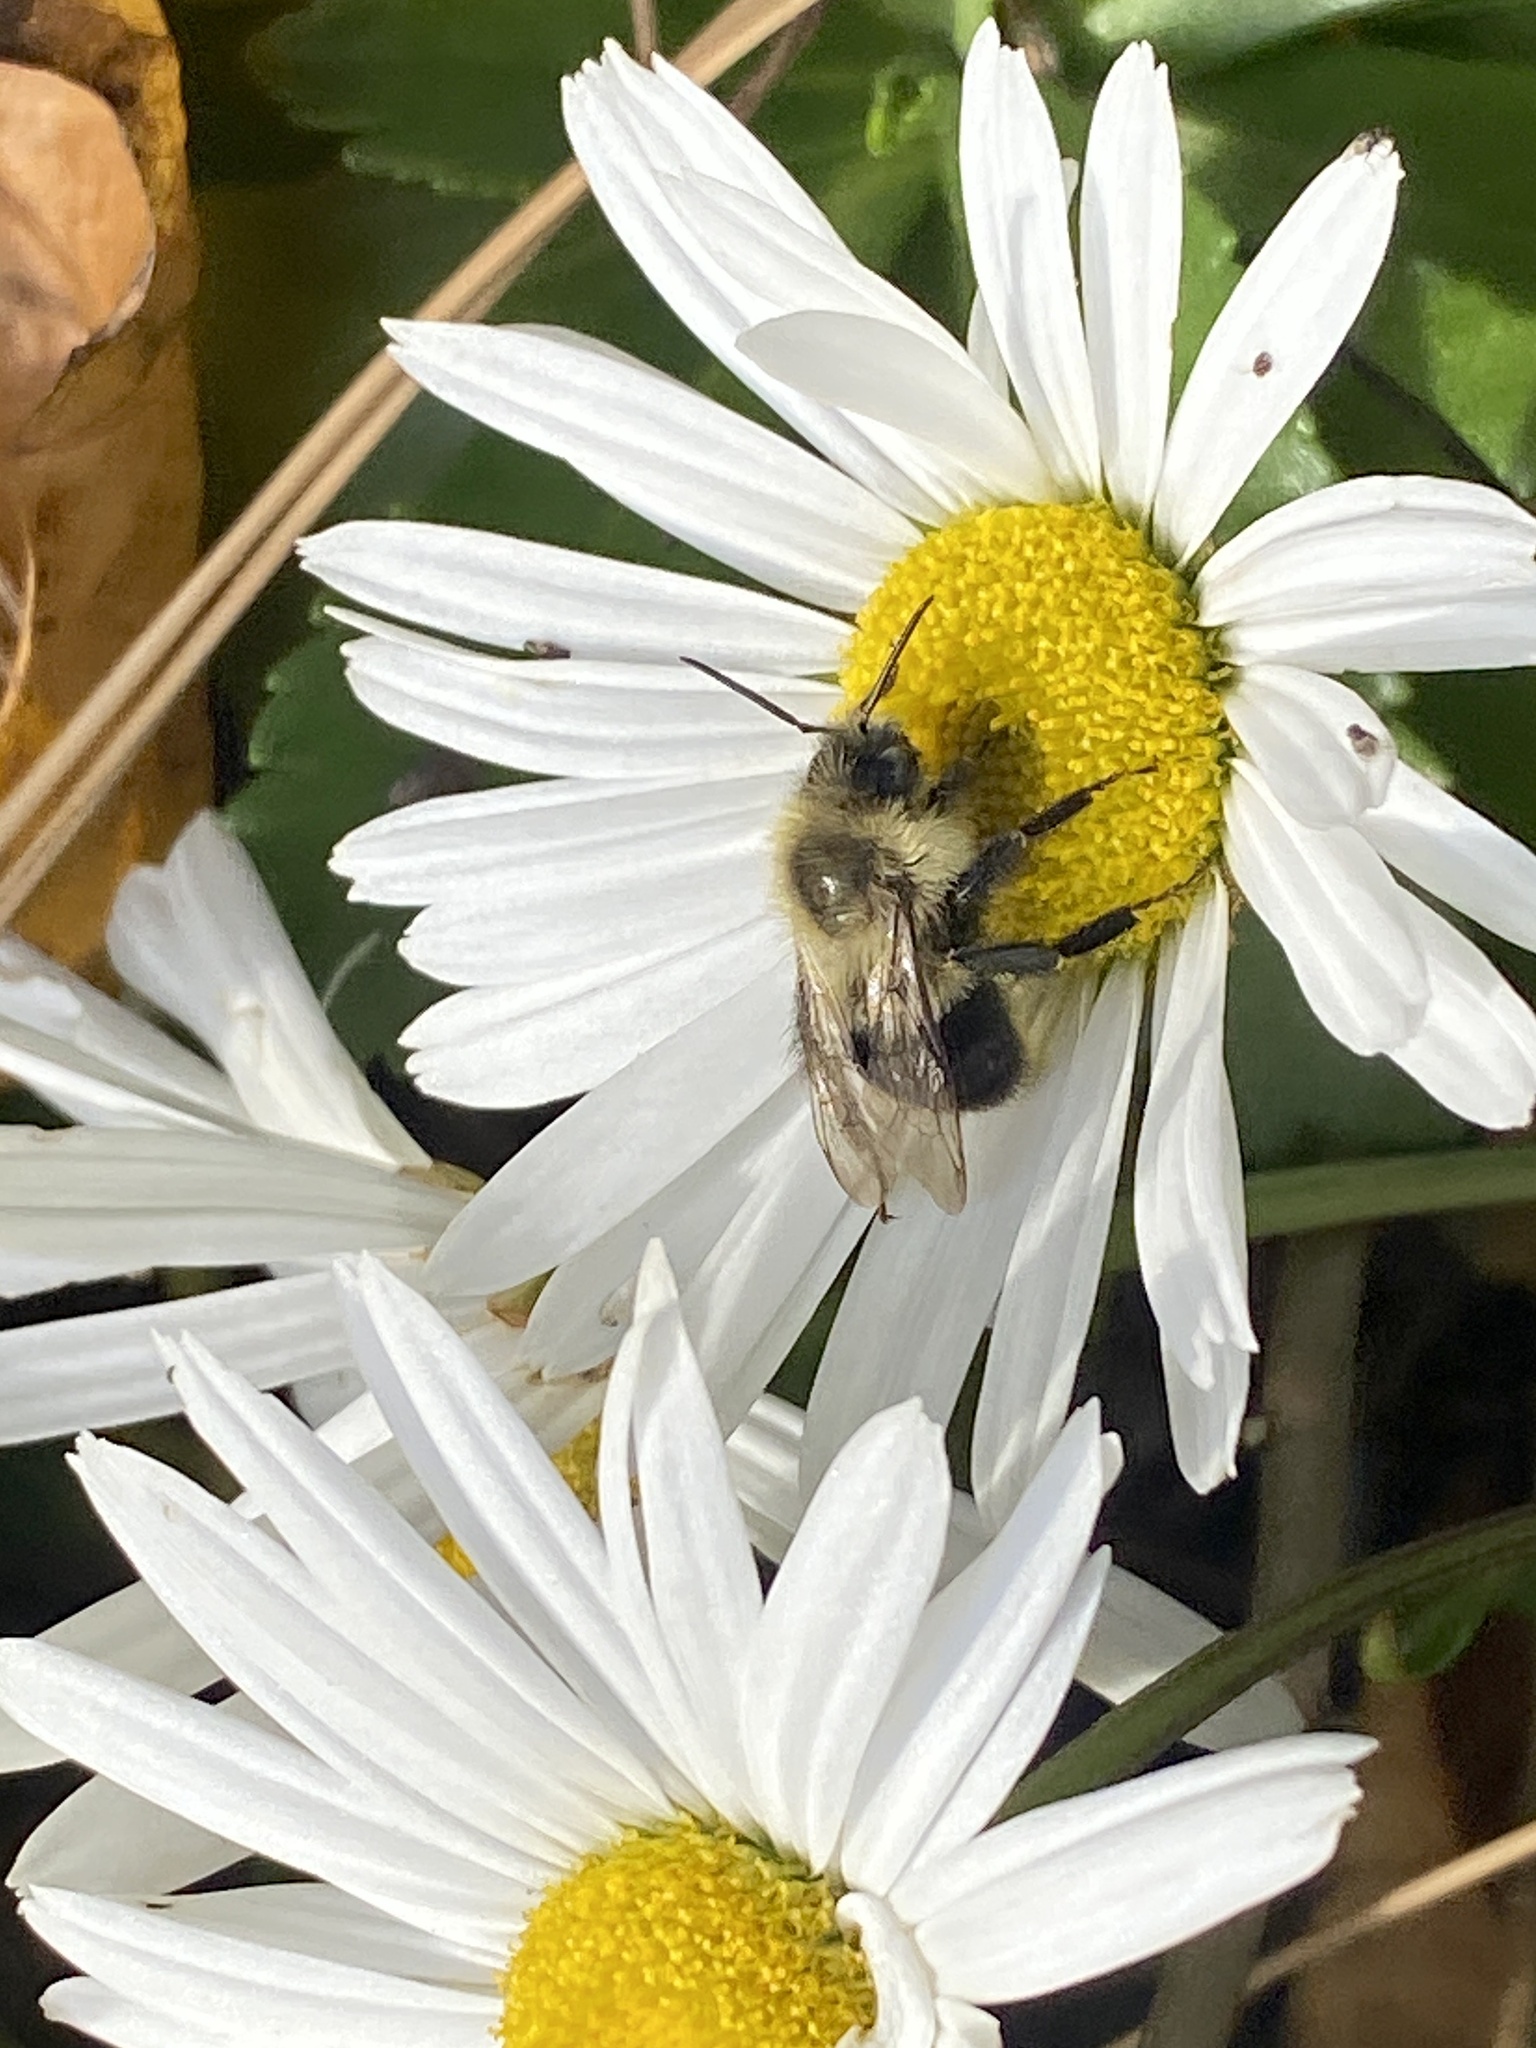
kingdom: Animalia
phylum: Arthropoda
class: Insecta
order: Hymenoptera
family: Apidae
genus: Bombus
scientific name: Bombus impatiens
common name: Common eastern bumble bee
